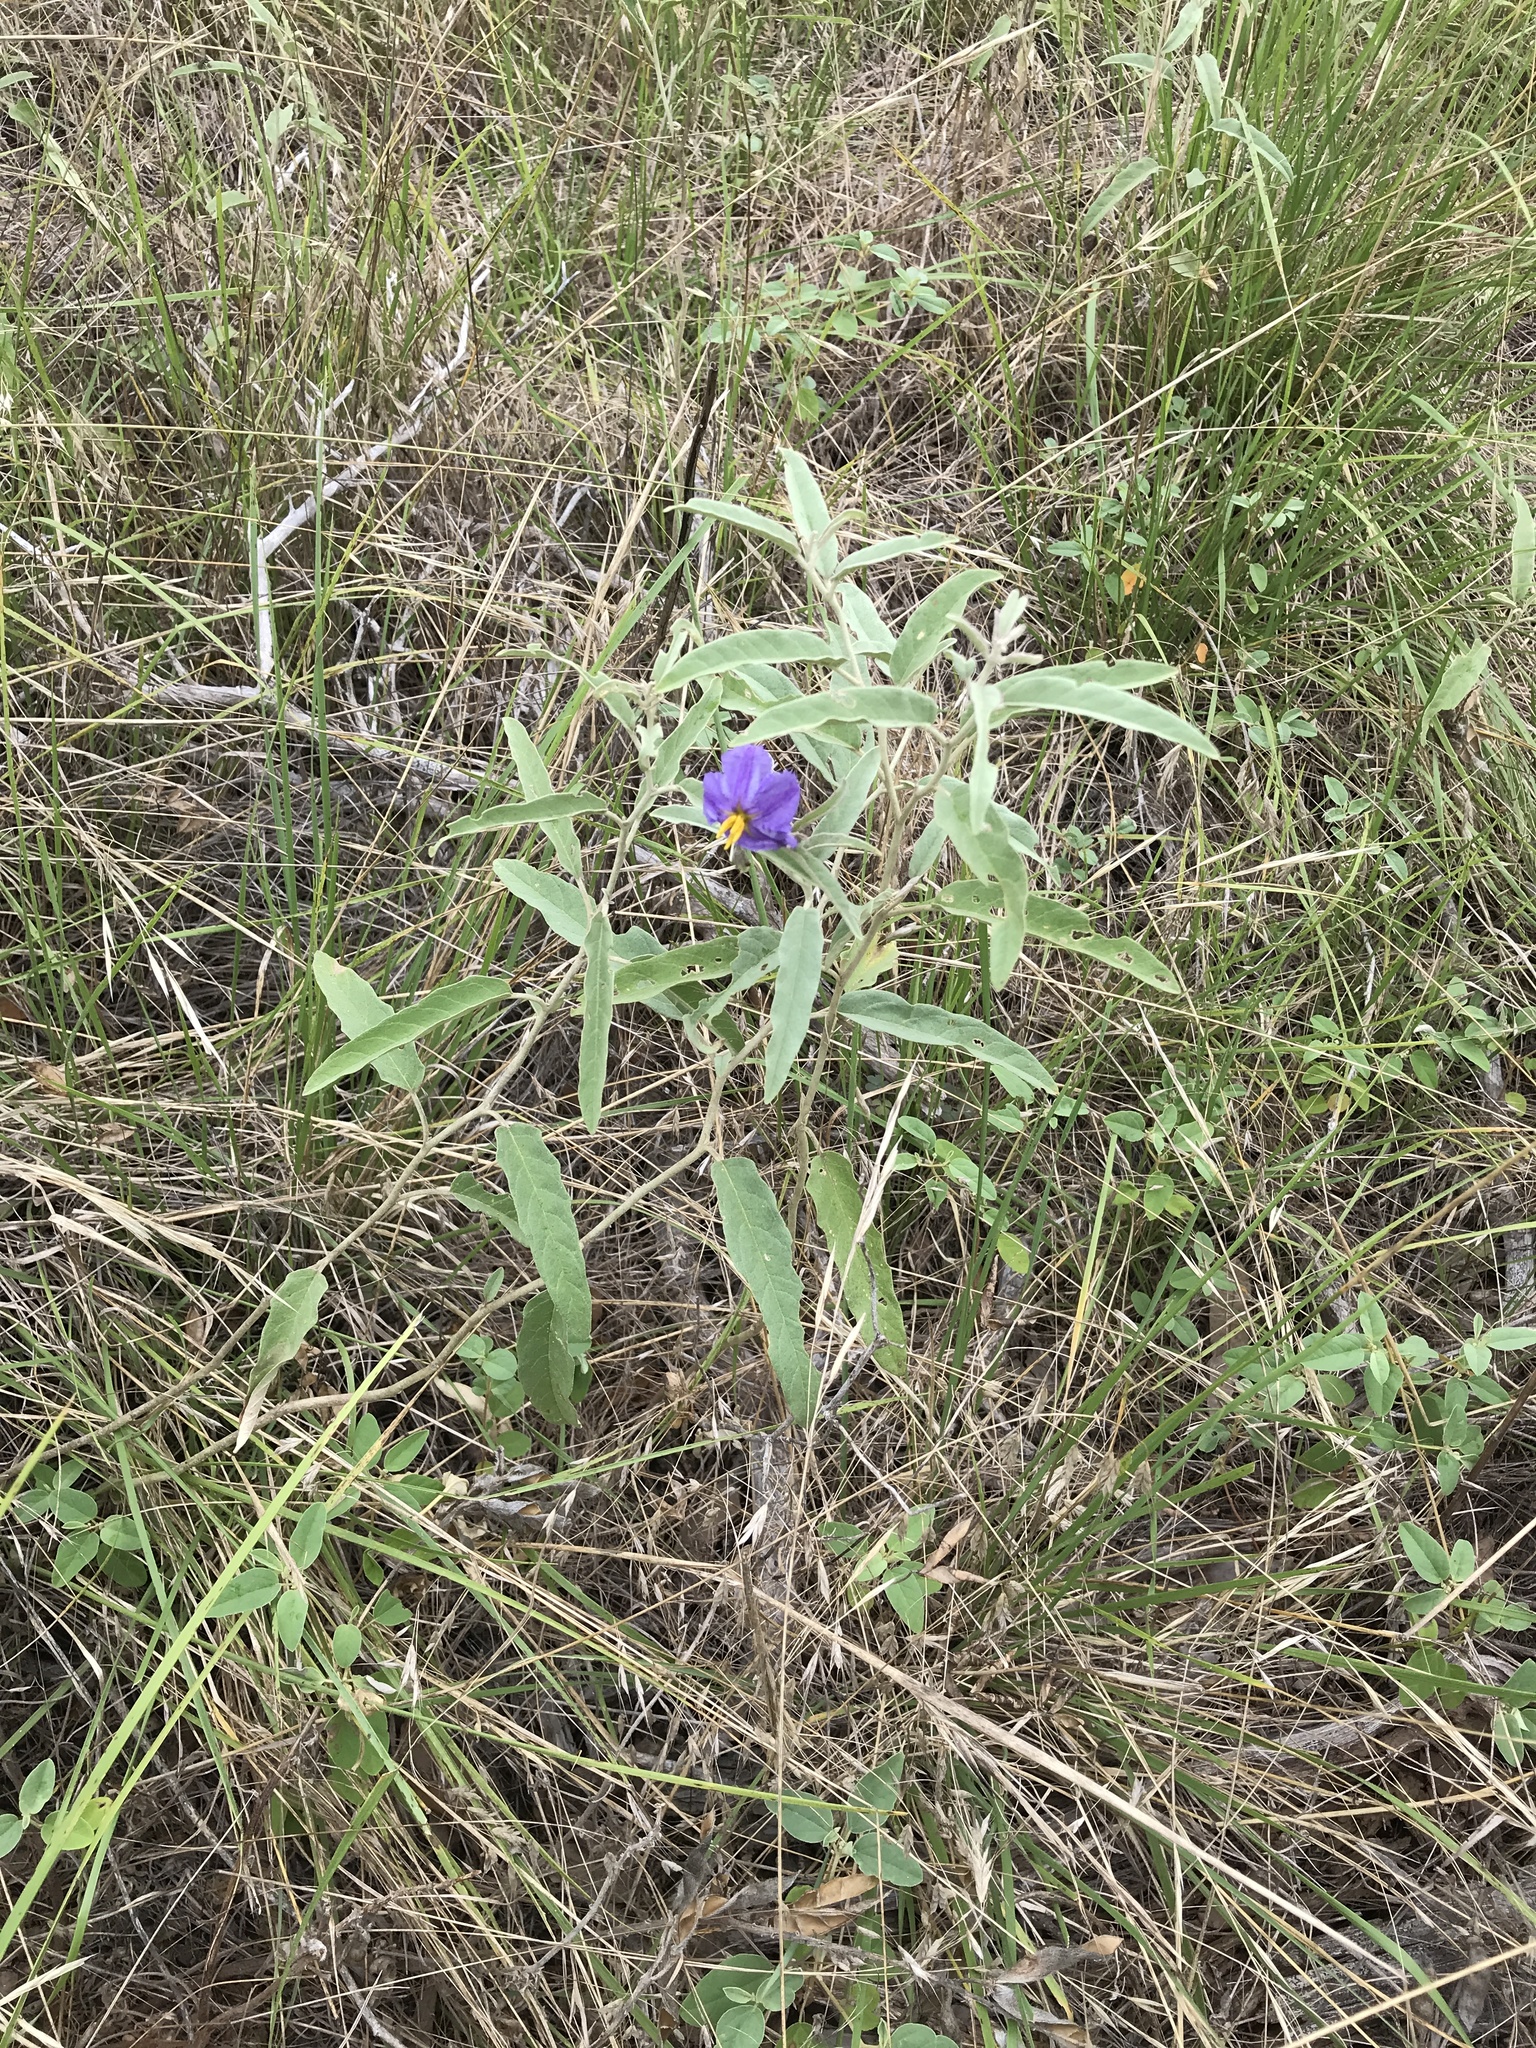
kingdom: Plantae
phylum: Tracheophyta
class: Magnoliopsida
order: Solanales
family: Solanaceae
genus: Solanum
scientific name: Solanum elaeagnifolium
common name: Silverleaf nightshade
